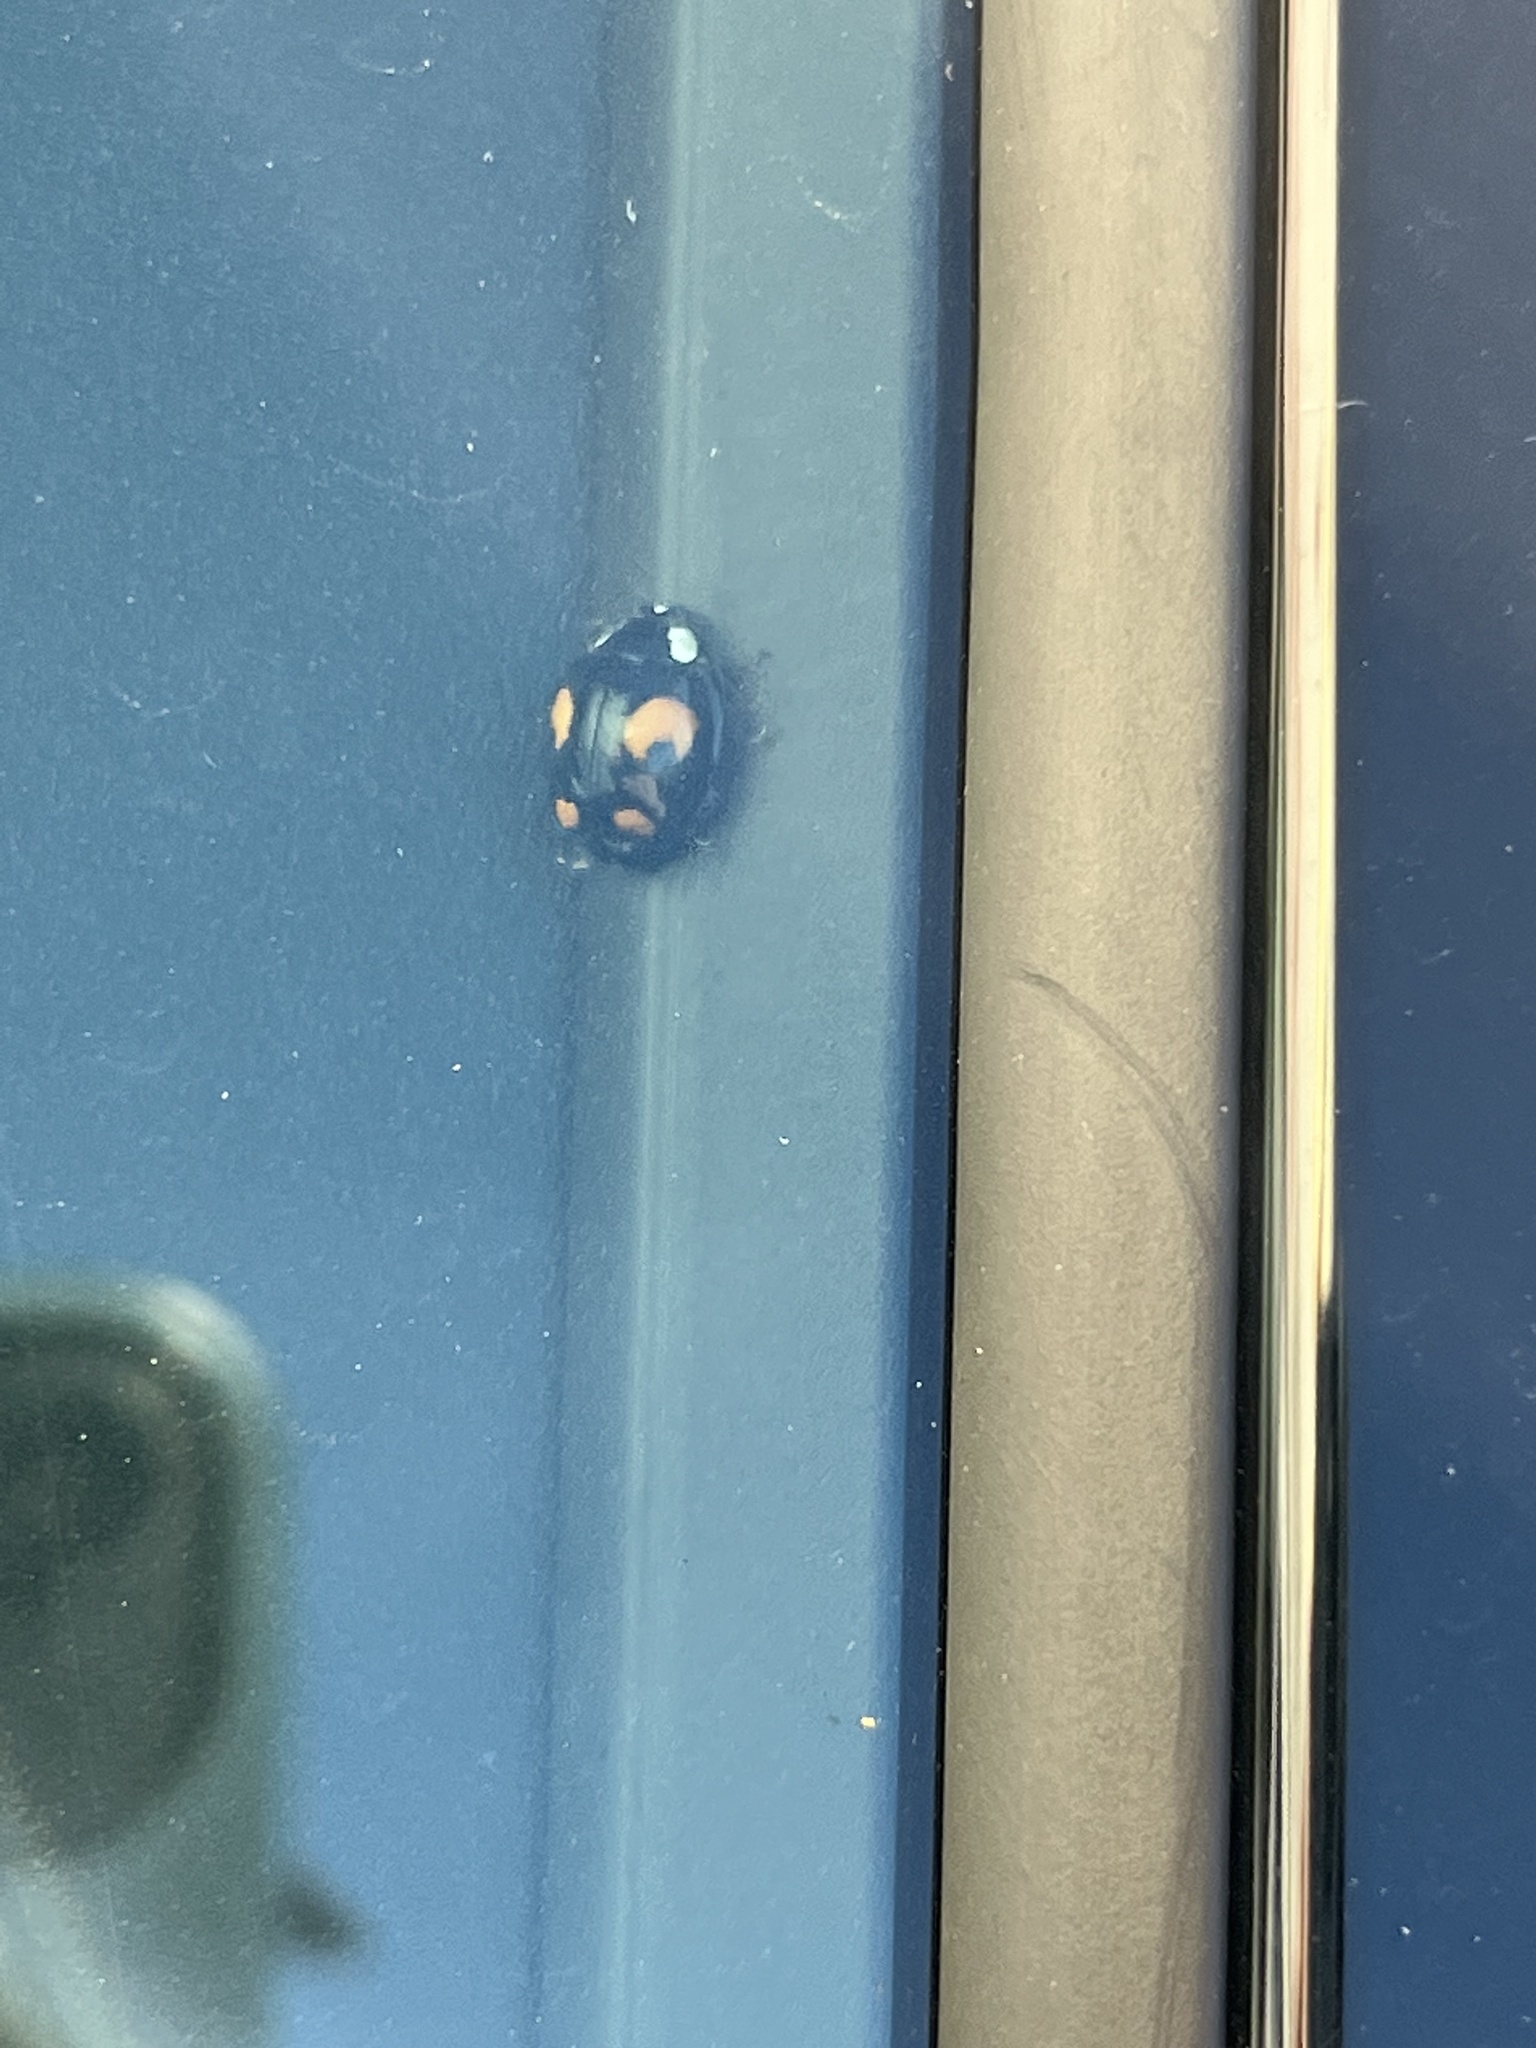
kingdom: Animalia
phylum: Arthropoda
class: Insecta
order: Coleoptera
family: Coccinellidae
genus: Harmonia
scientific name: Harmonia axyridis
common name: Harlequin ladybird
